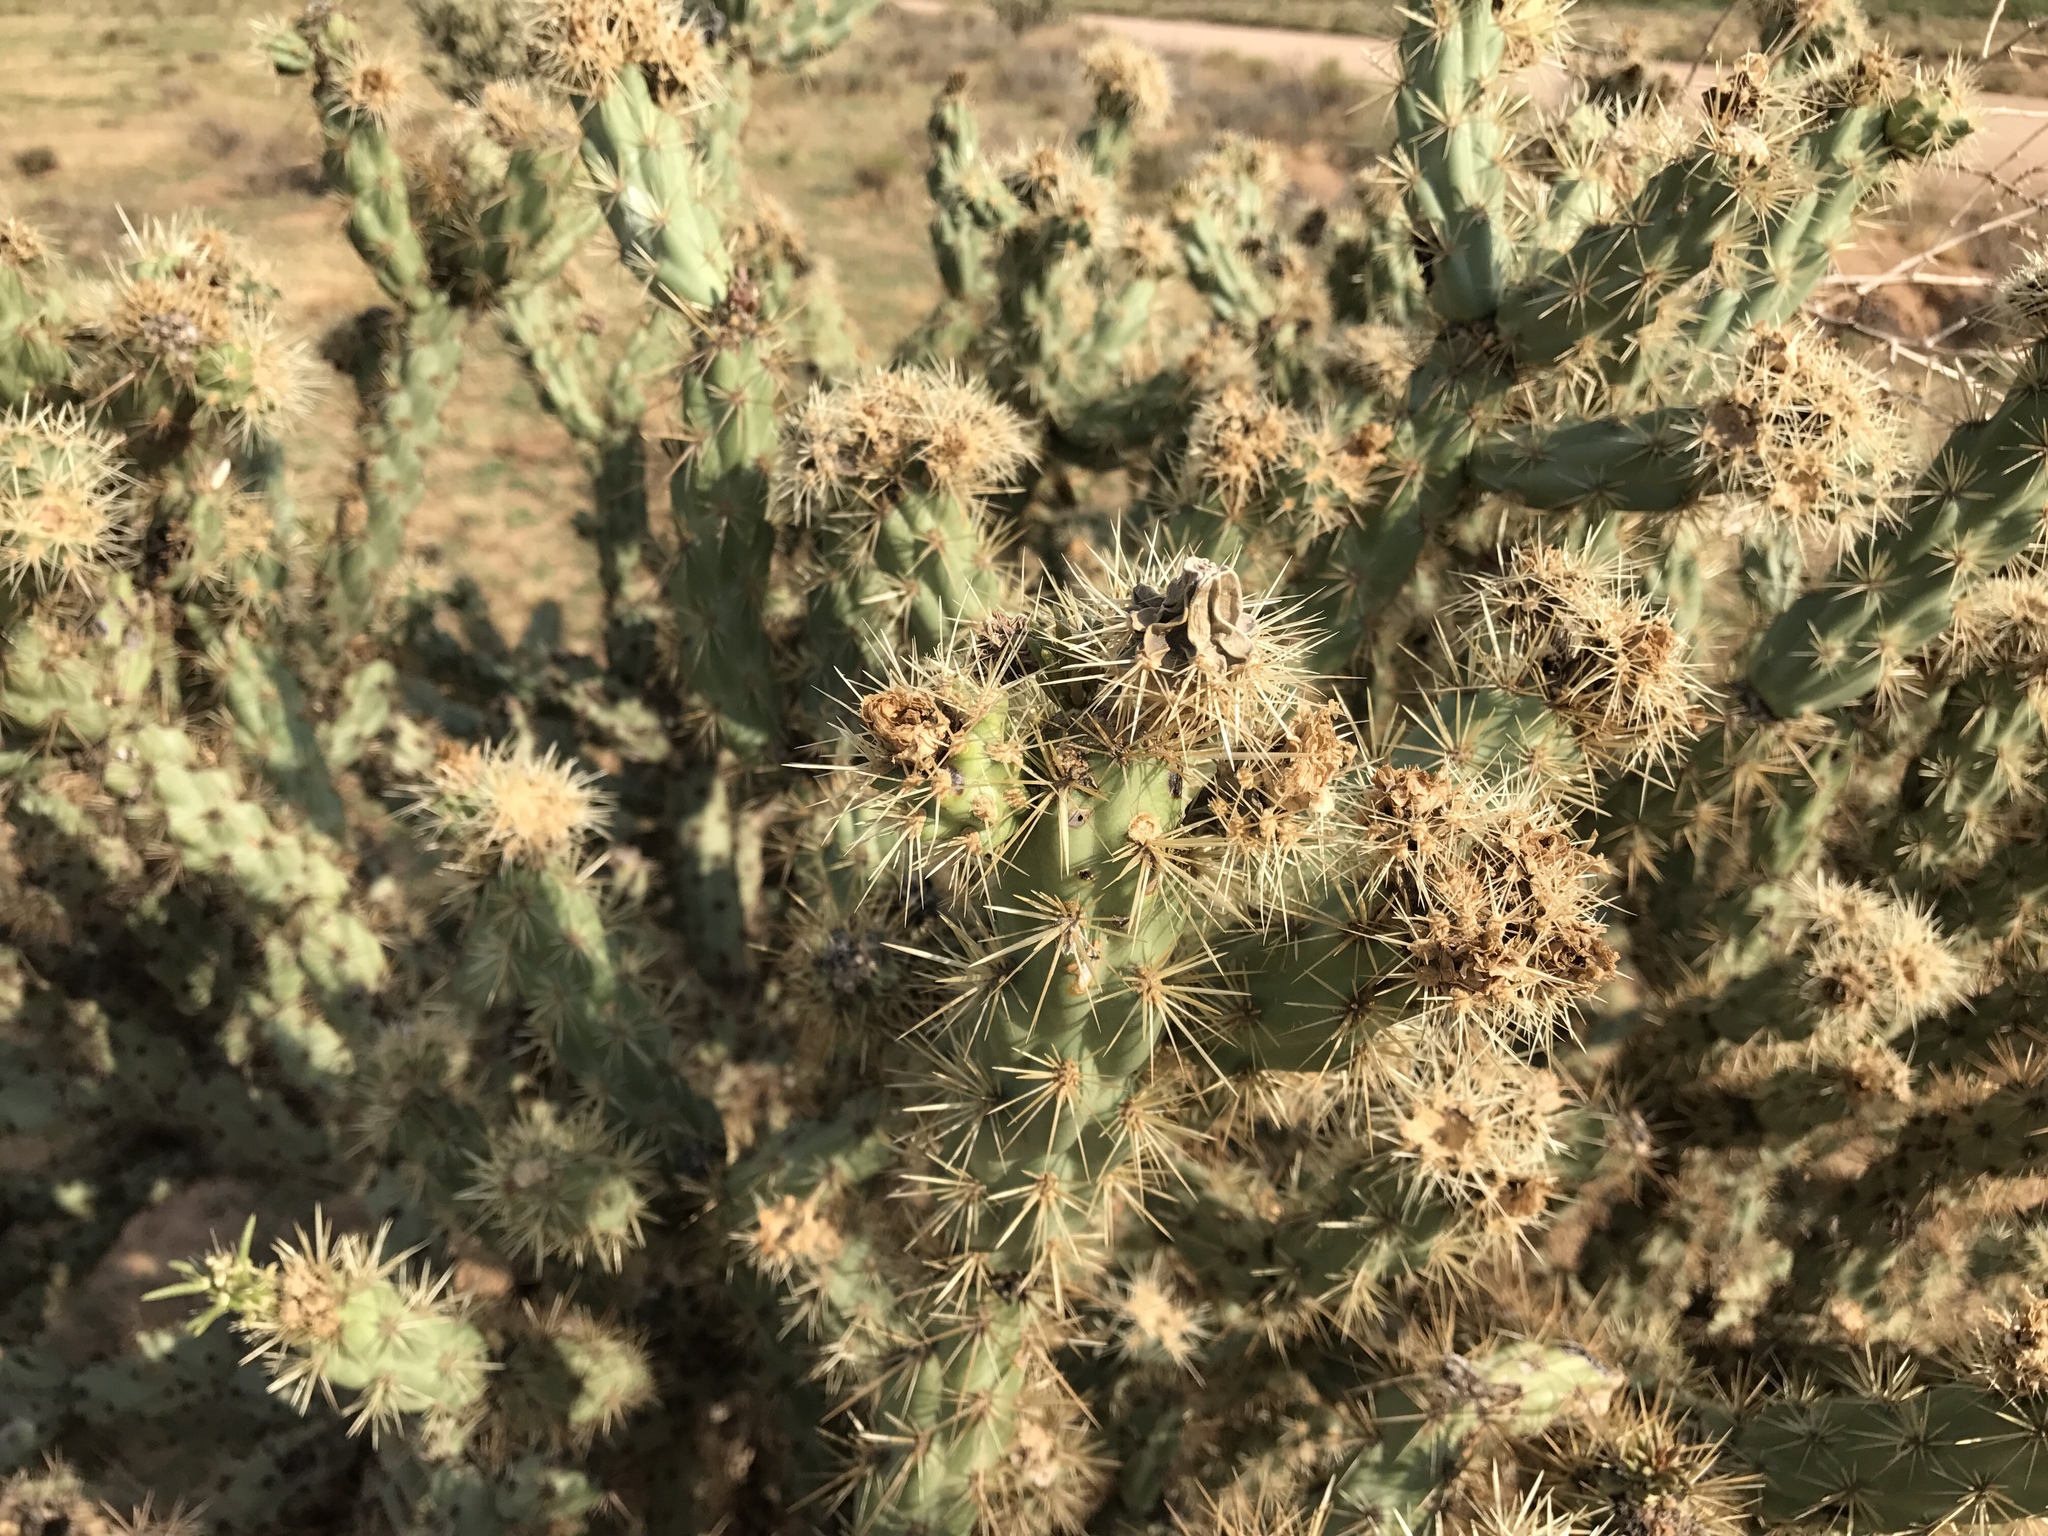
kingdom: Plantae
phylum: Tracheophyta
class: Magnoliopsida
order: Caryophyllales
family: Cactaceae
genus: Cylindropuntia
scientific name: Cylindropuntia acanthocarpa
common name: Buckhorn cholla
